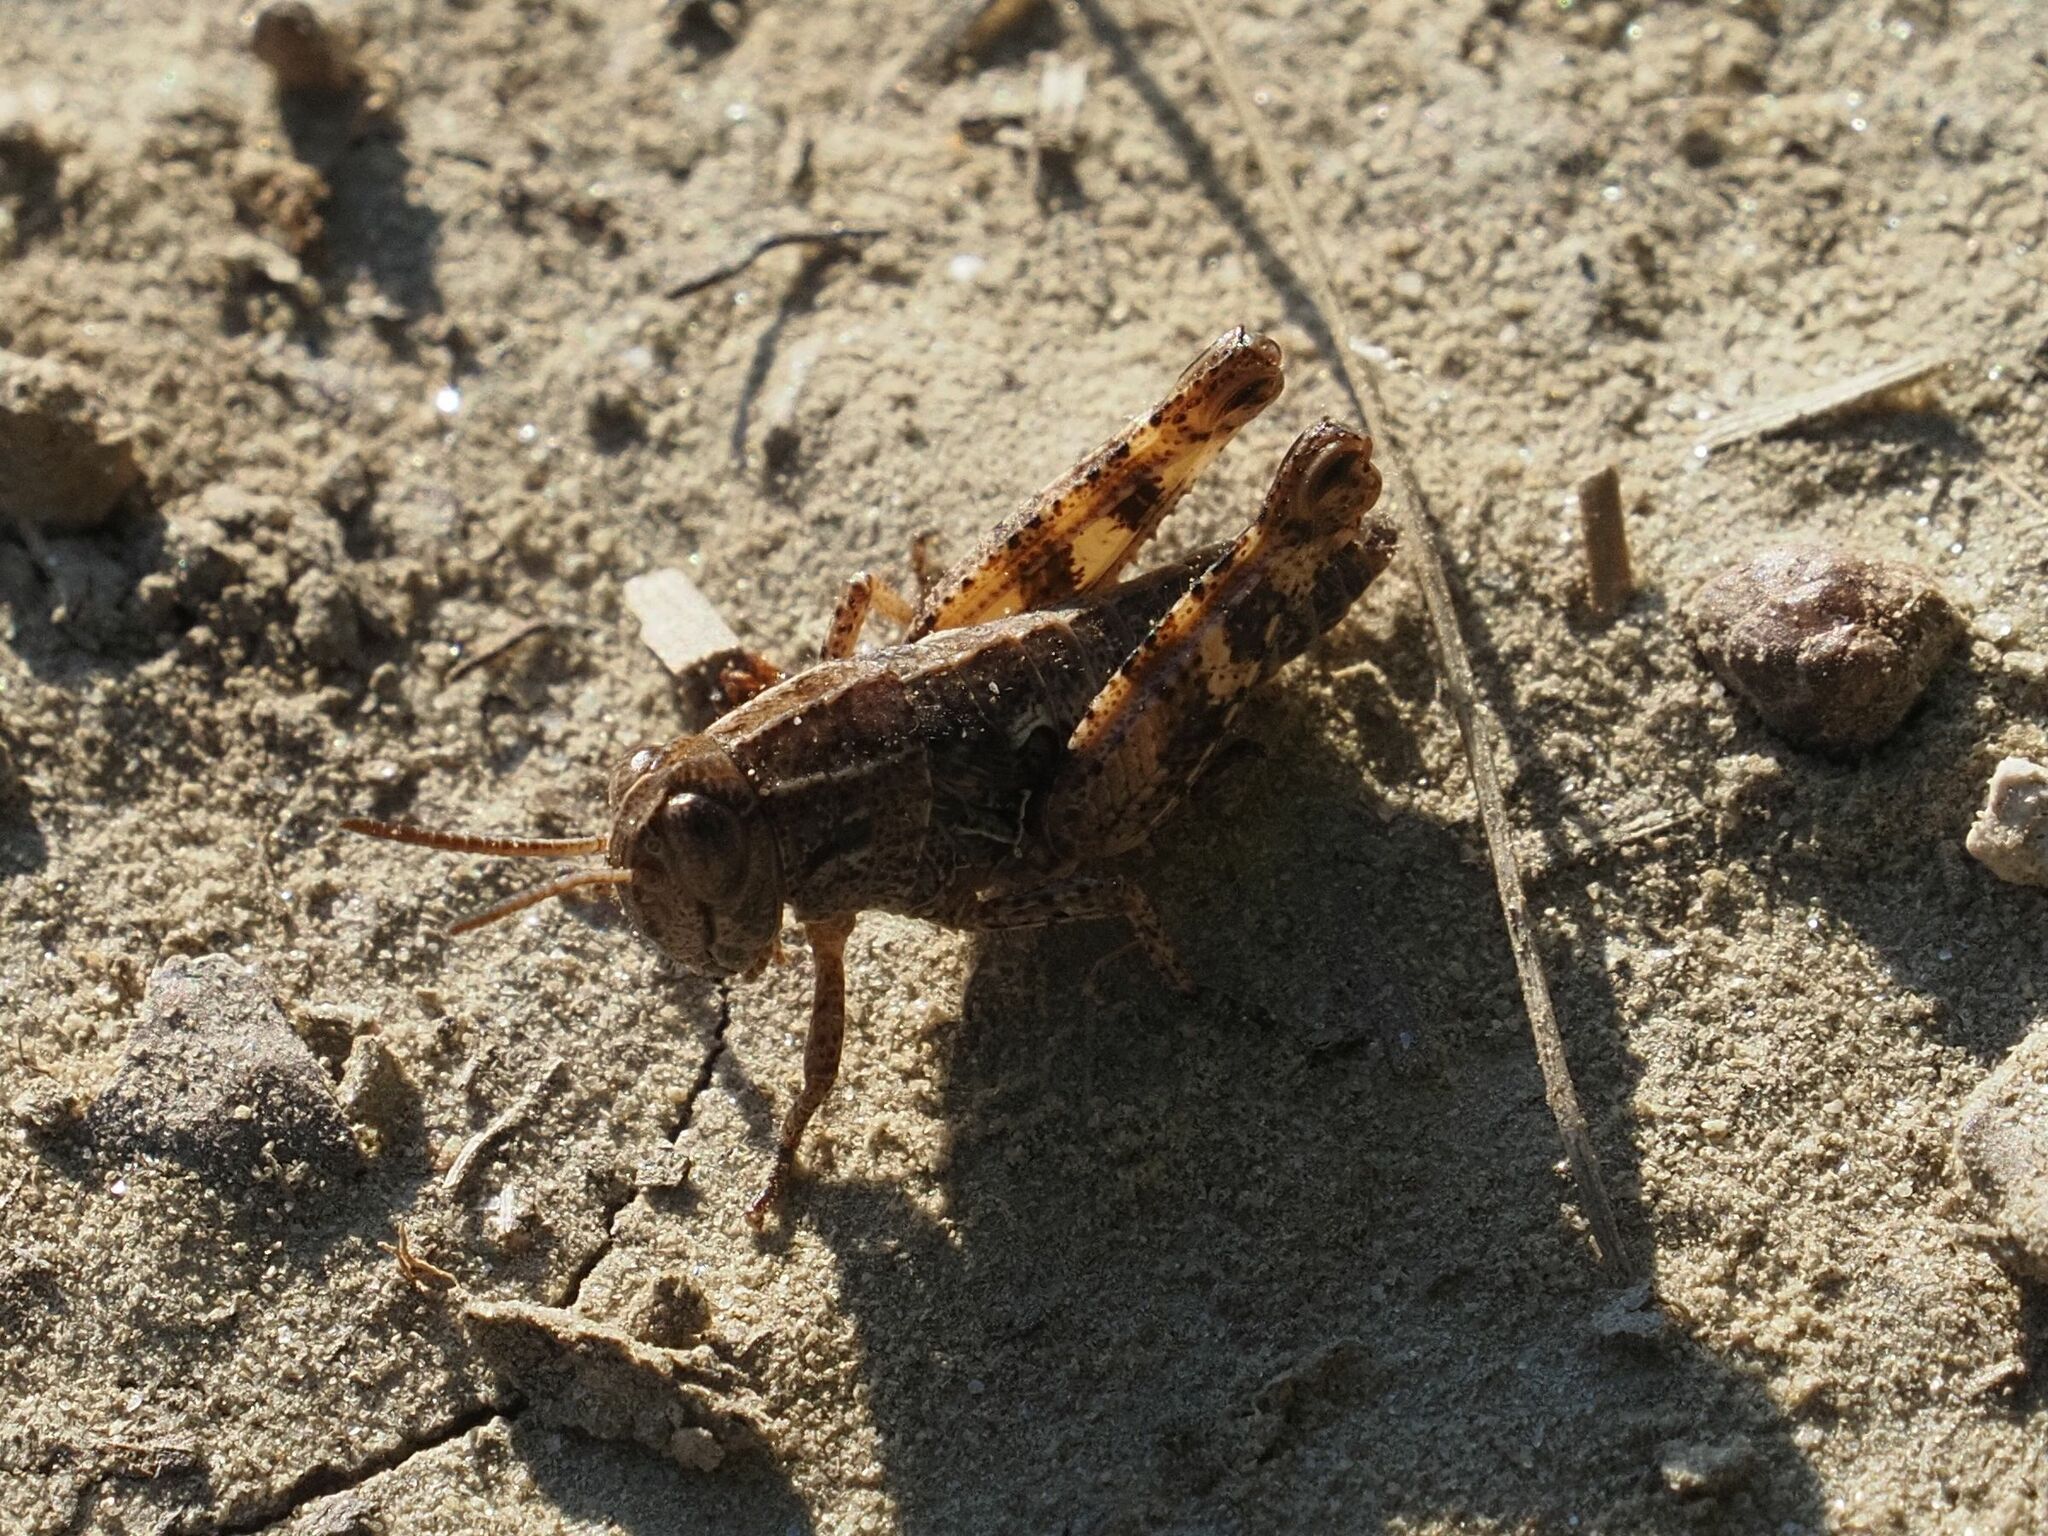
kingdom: Animalia
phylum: Arthropoda
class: Insecta
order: Orthoptera
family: Acrididae
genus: Calliptamus
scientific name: Calliptamus italicus
